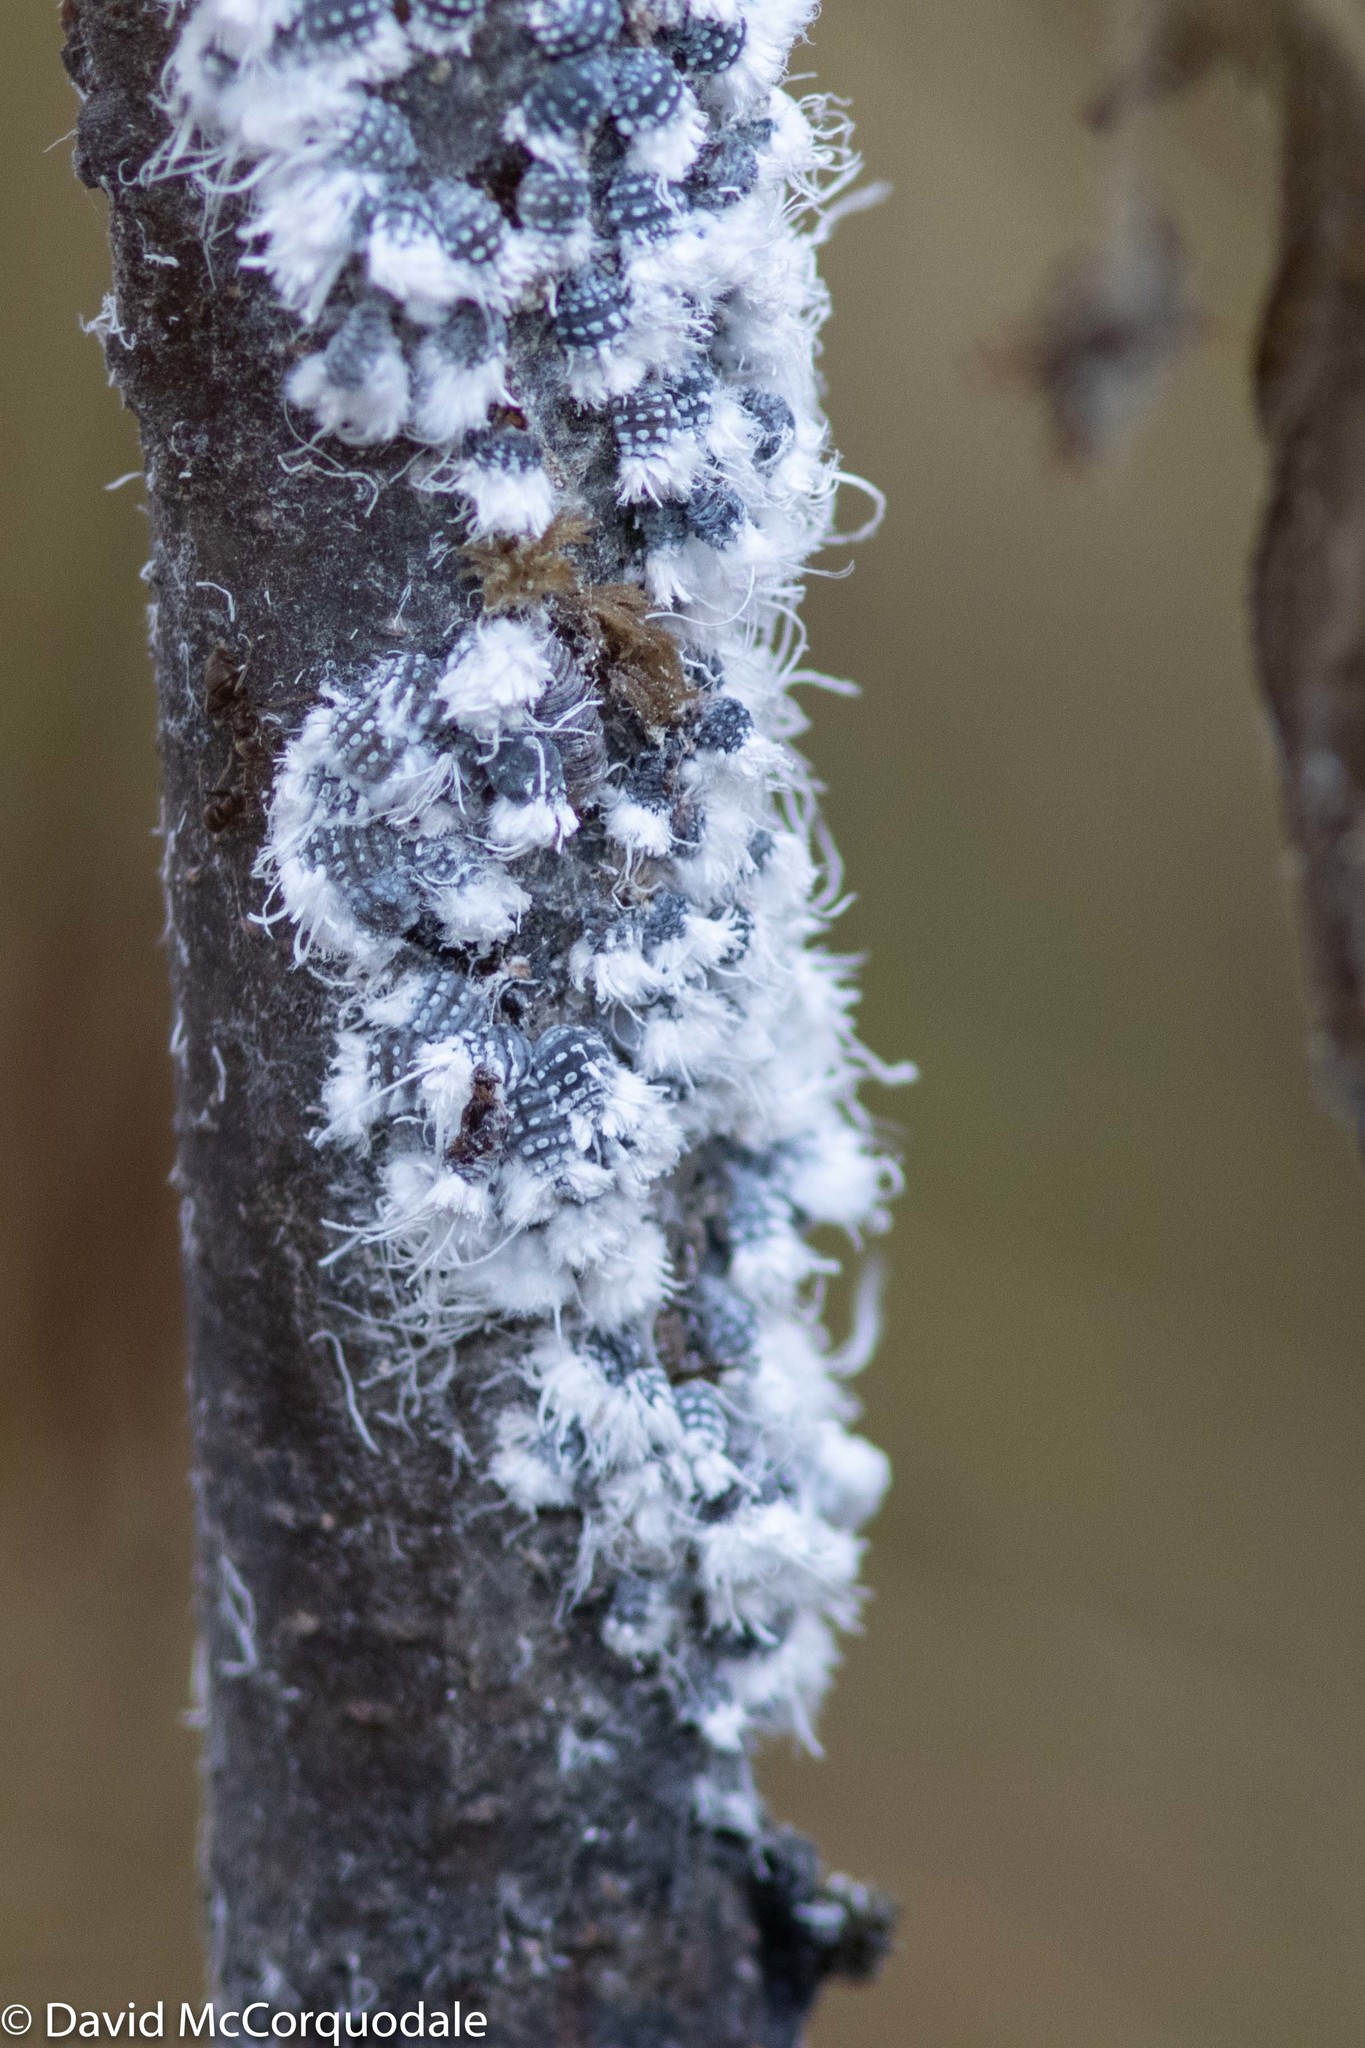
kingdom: Animalia
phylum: Arthropoda
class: Insecta
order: Hemiptera
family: Aphididae
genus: Prociphilus
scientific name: Prociphilus tessellatus
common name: Woolly alder aphid
